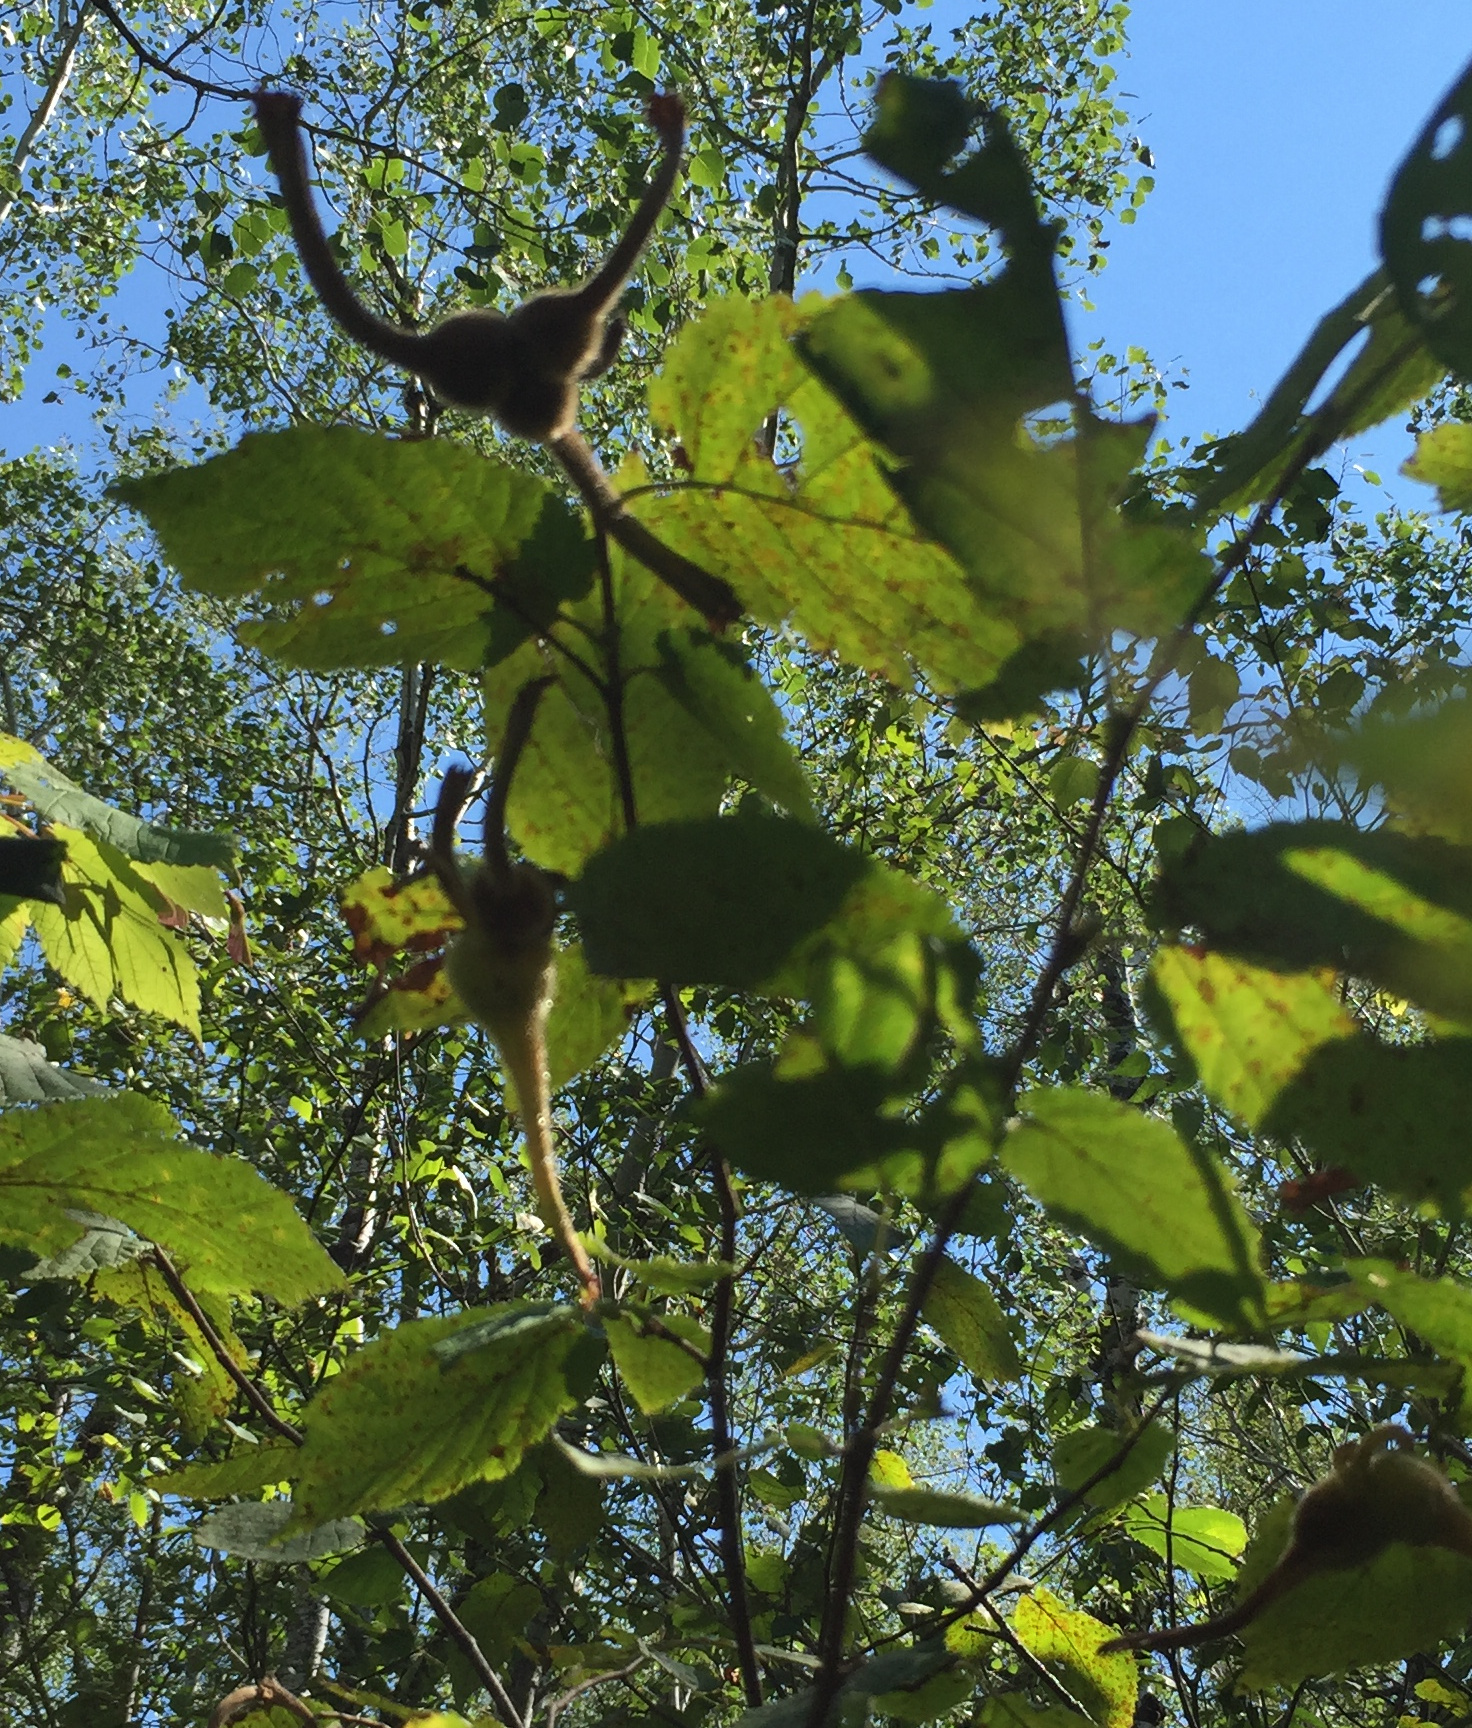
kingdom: Plantae
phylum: Tracheophyta
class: Magnoliopsida
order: Fagales
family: Betulaceae
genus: Corylus
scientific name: Corylus cornuta
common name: Beaked hazel
